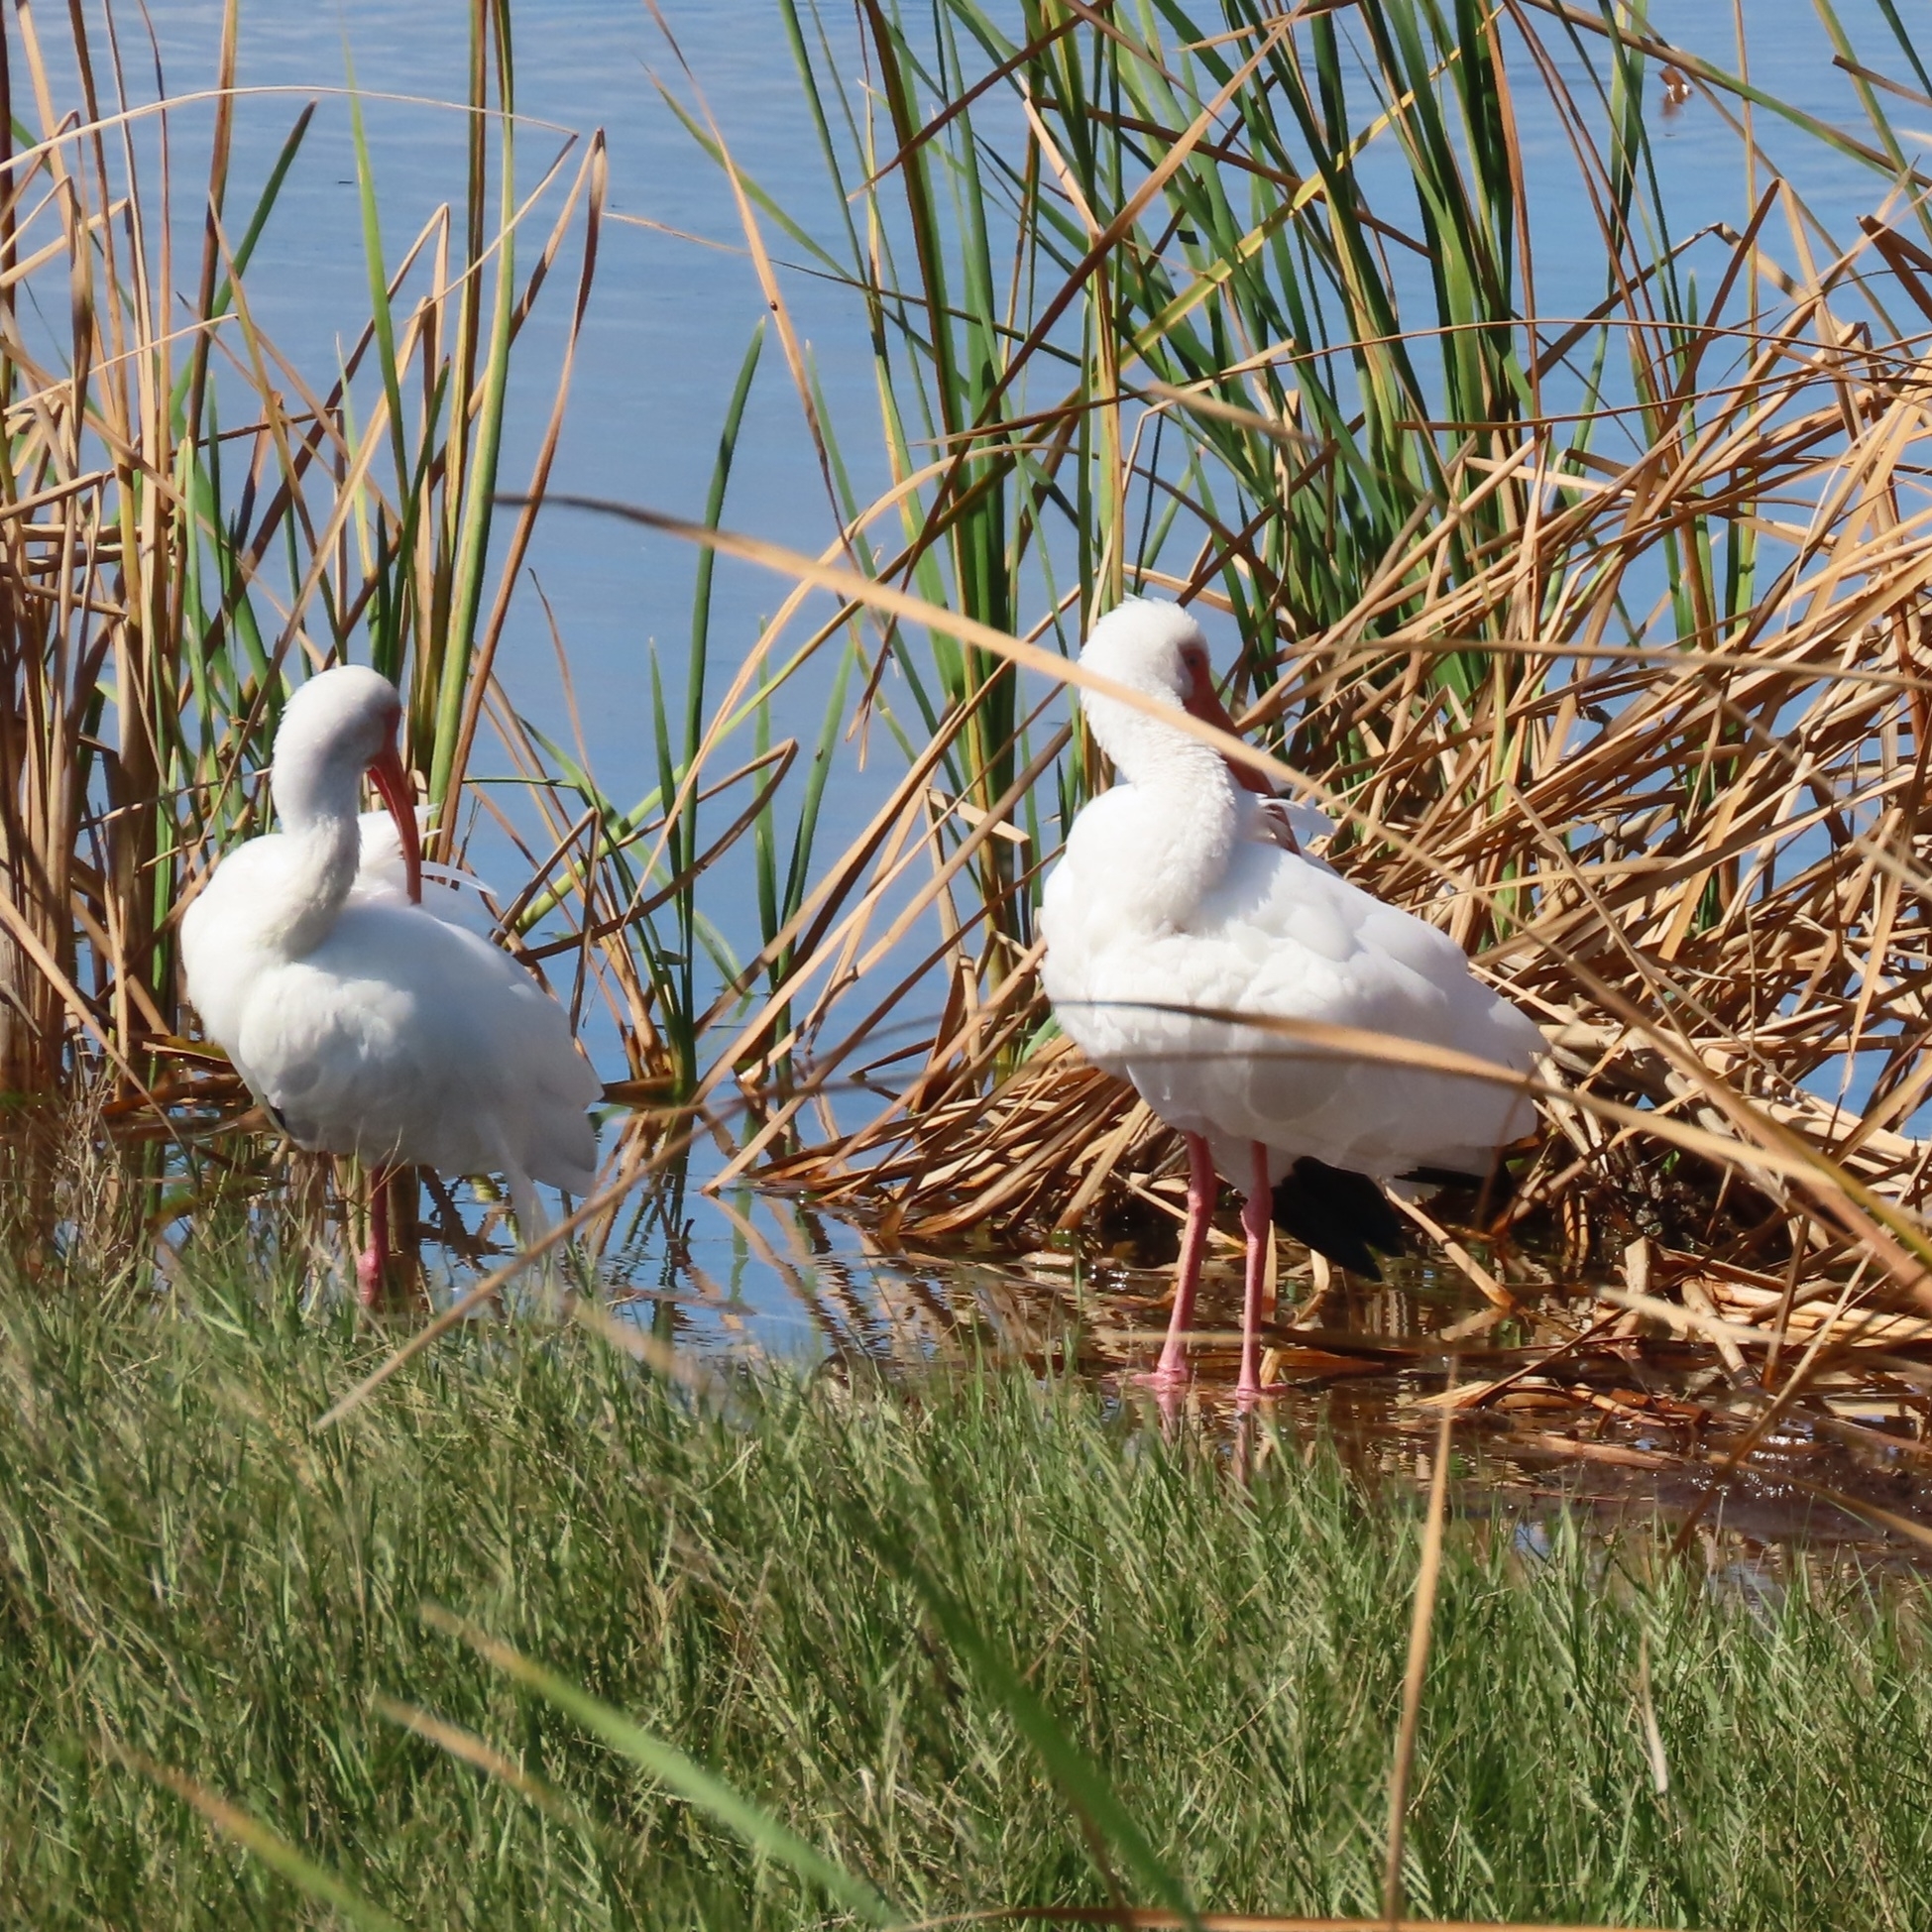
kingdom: Animalia
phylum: Chordata
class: Aves
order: Pelecaniformes
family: Threskiornithidae
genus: Eudocimus
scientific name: Eudocimus albus
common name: White ibis
